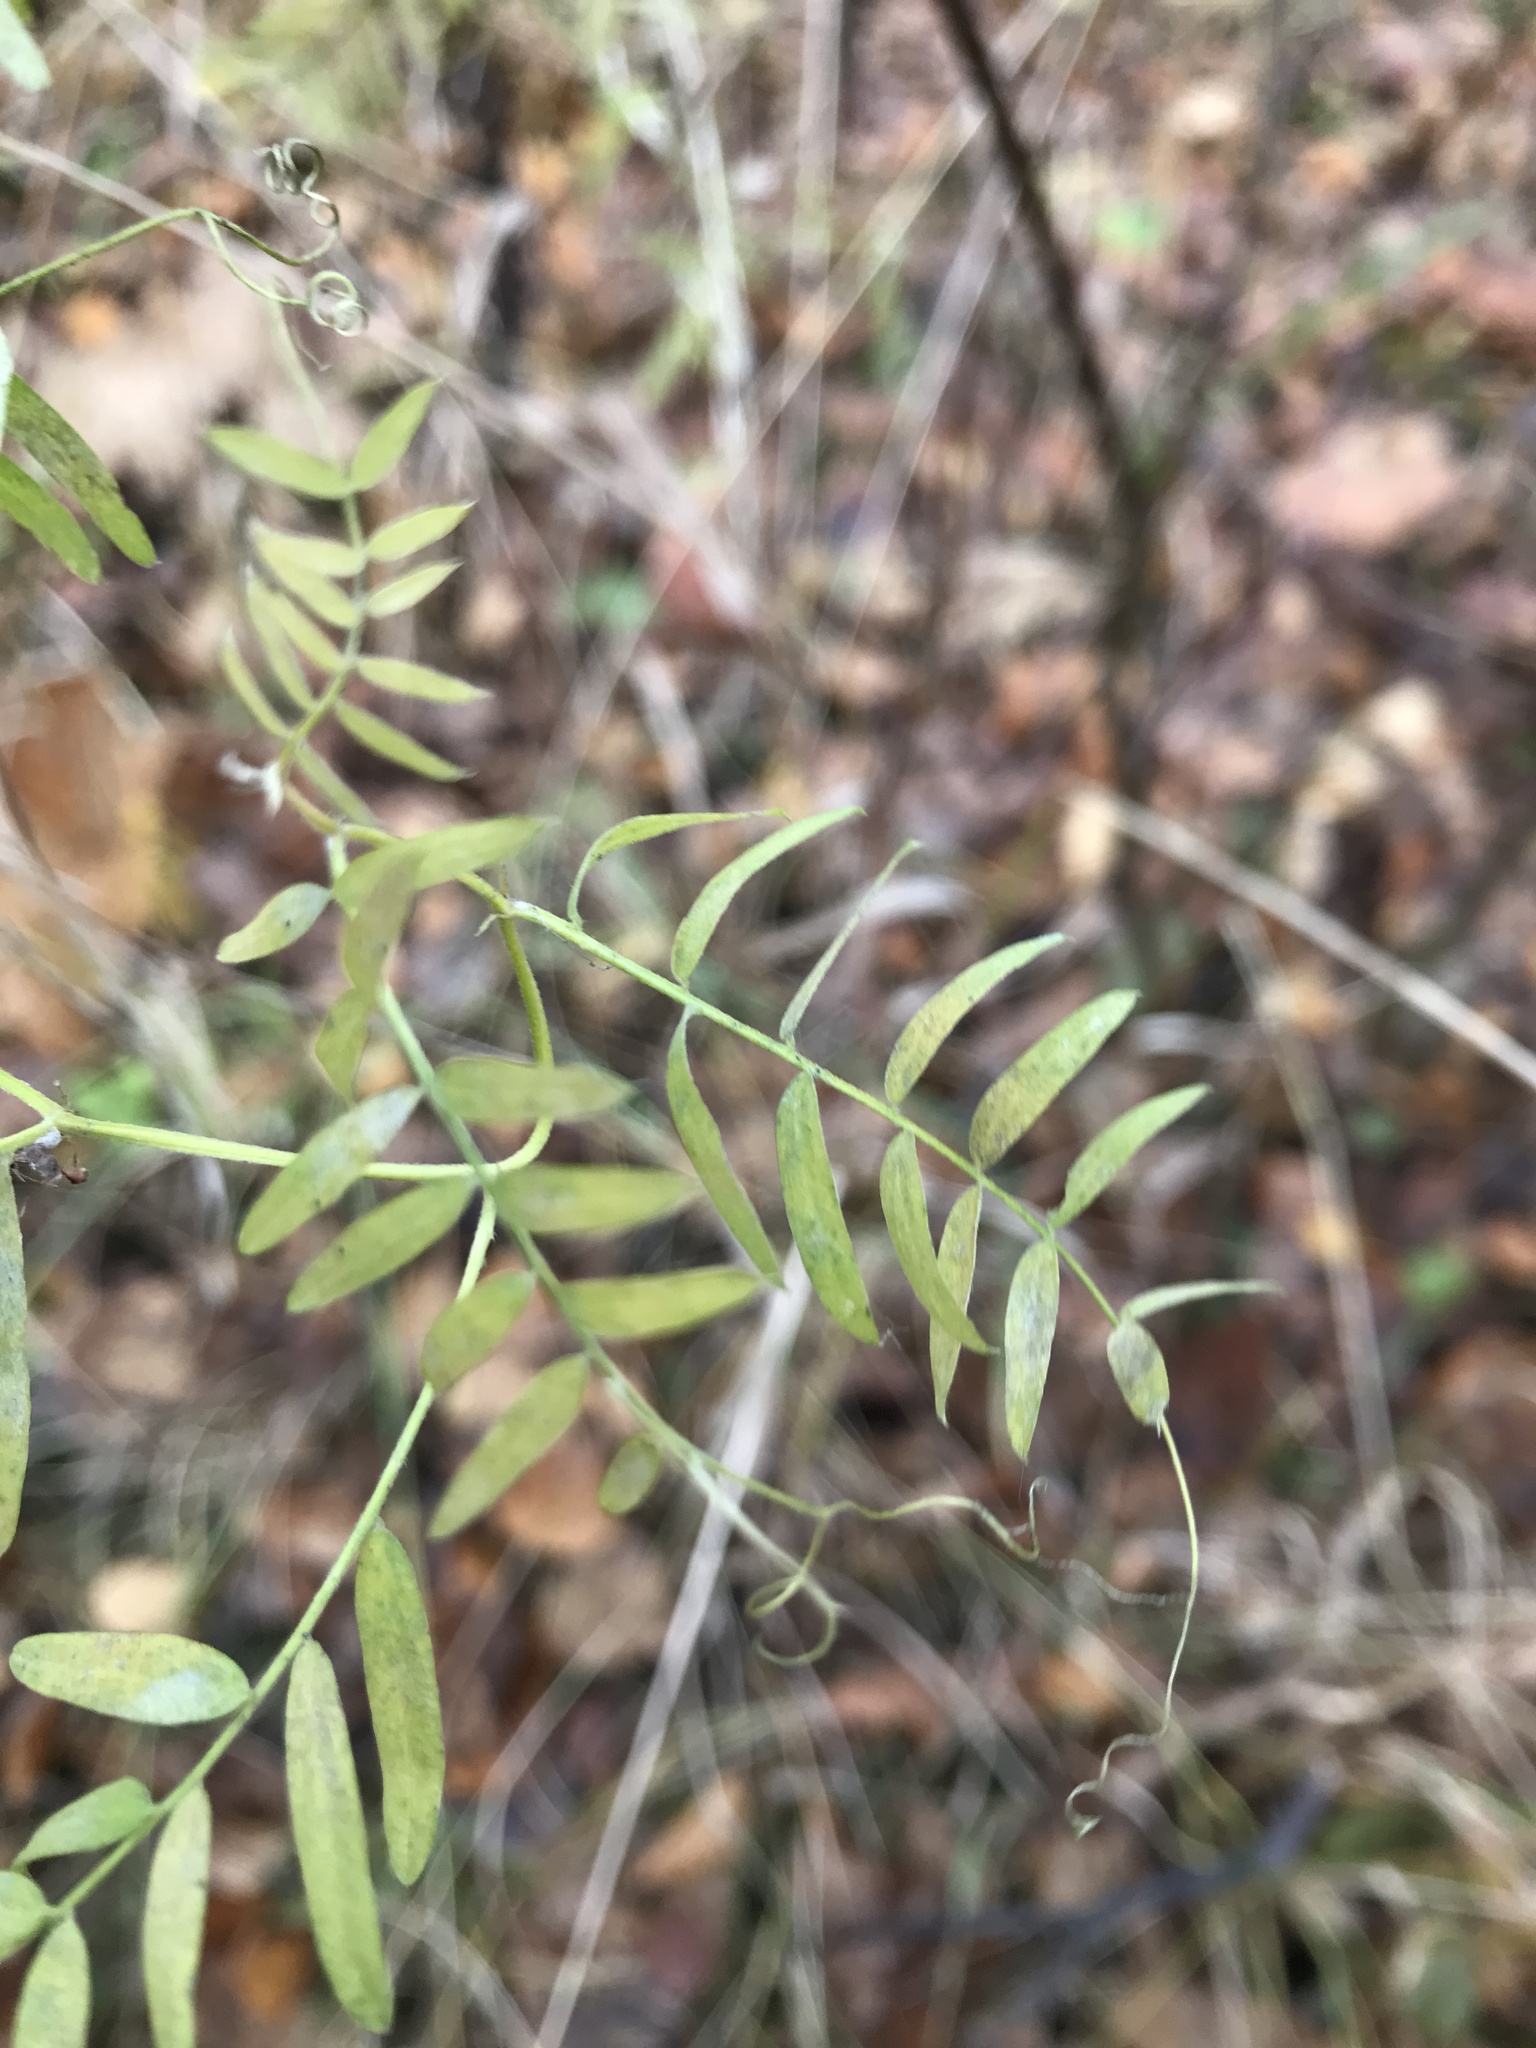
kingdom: Plantae
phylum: Tracheophyta
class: Magnoliopsida
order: Fabales
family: Fabaceae
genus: Vicia
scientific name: Vicia cracca
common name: Bird vetch
